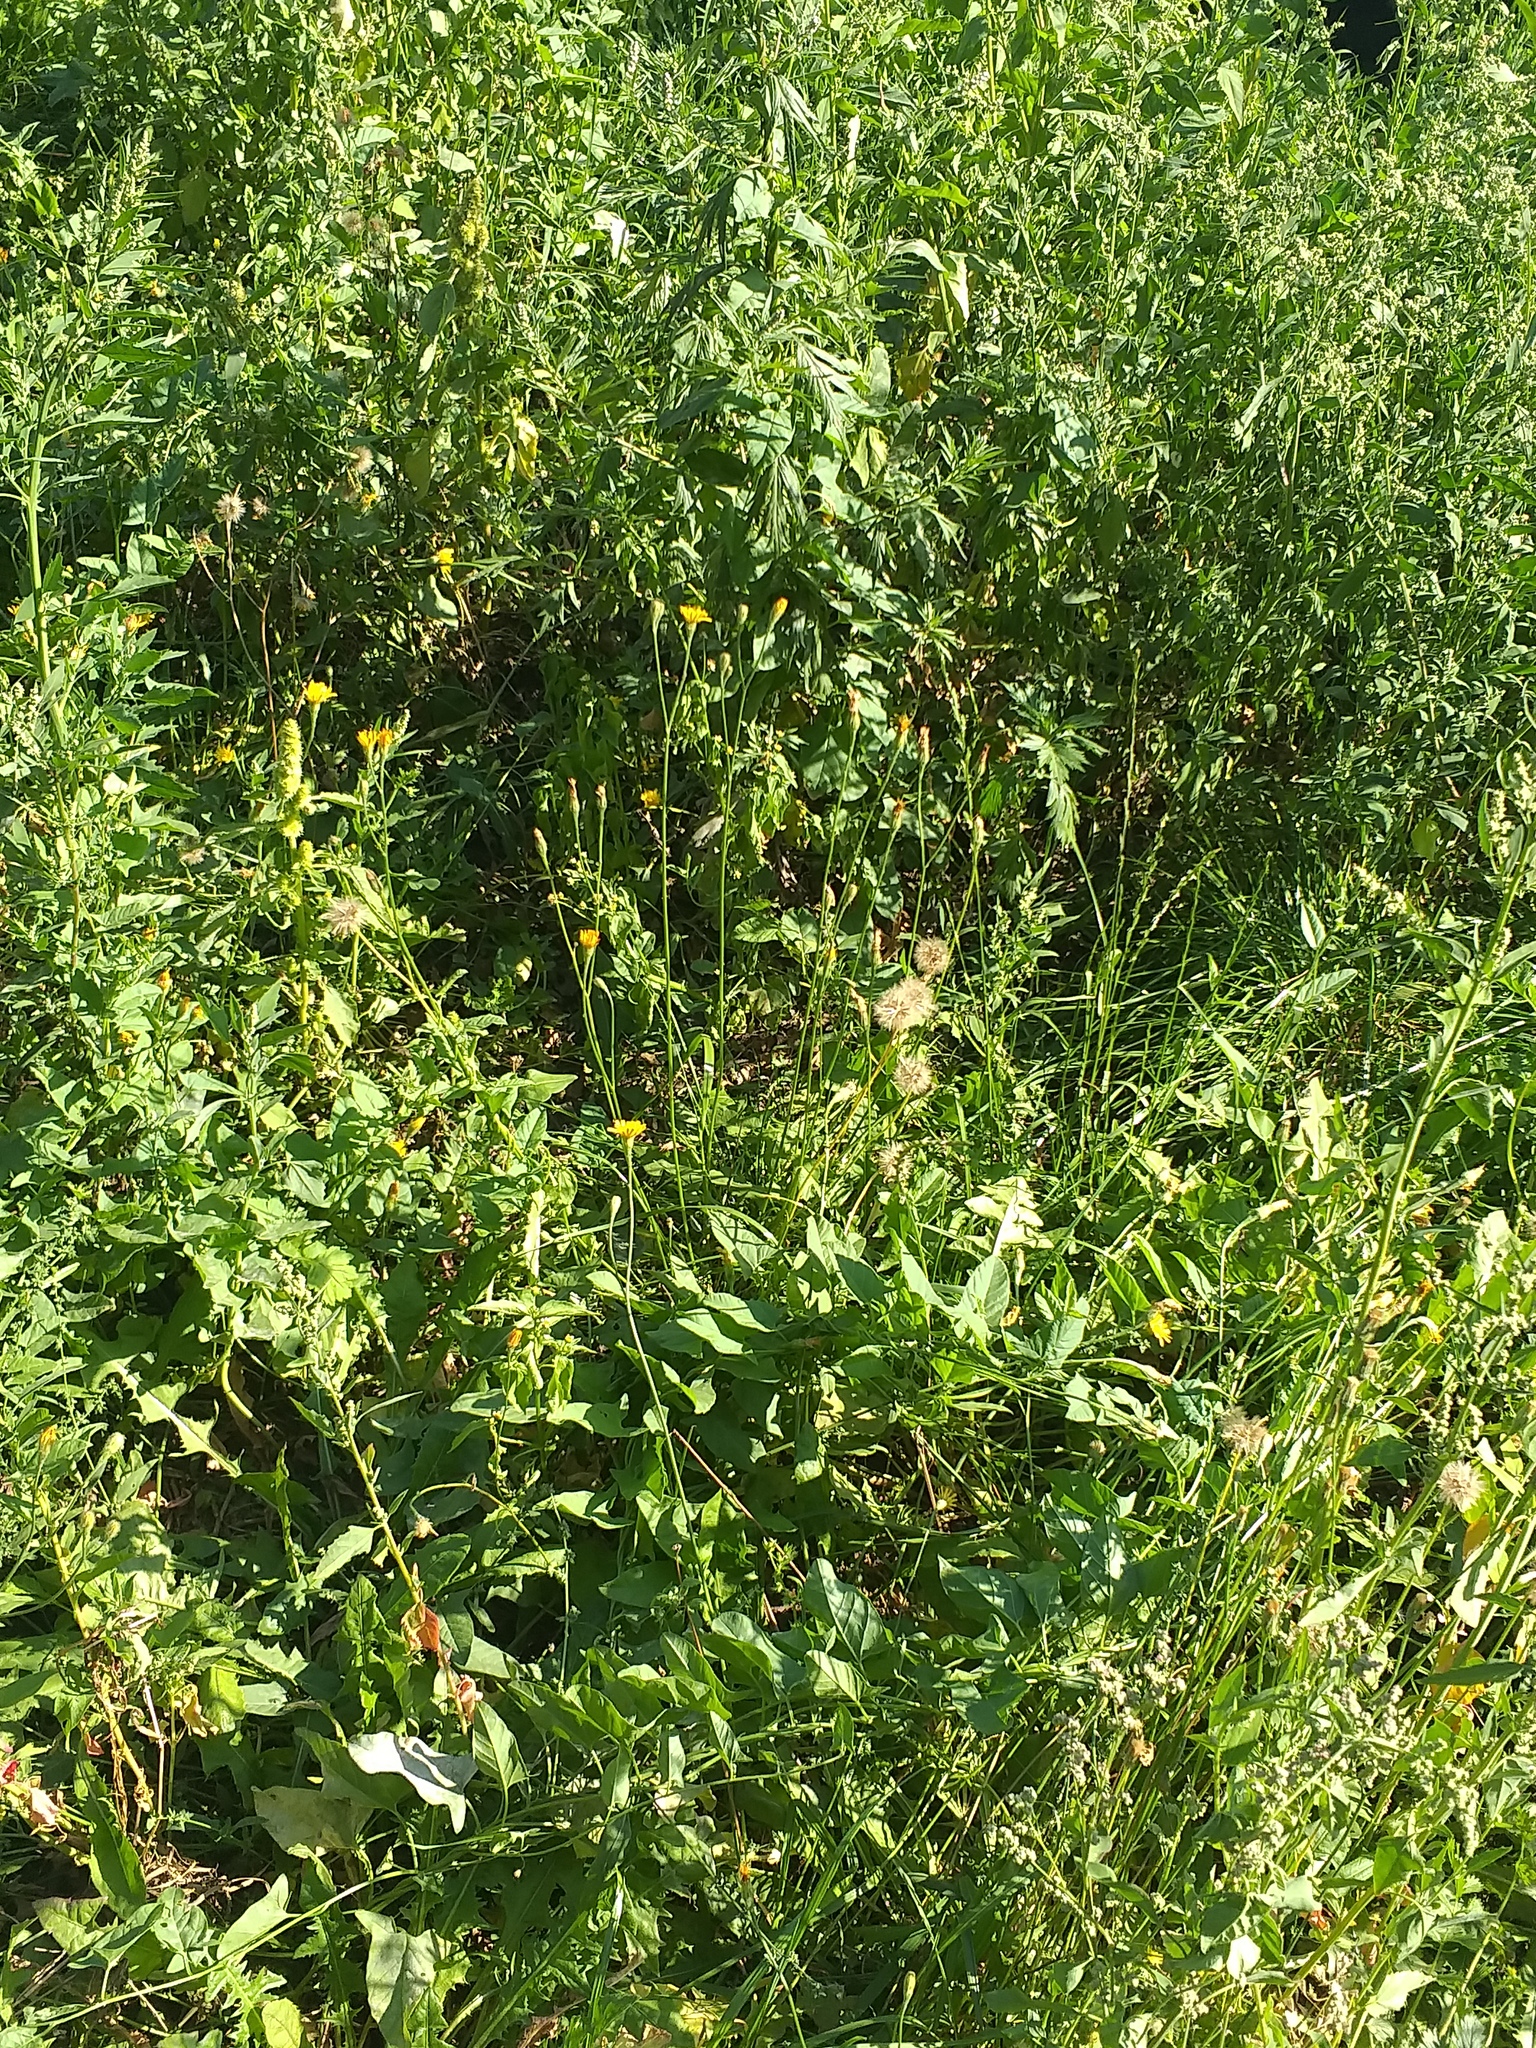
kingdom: Plantae
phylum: Tracheophyta
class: Magnoliopsida
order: Asterales
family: Asteraceae
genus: Scorzoneroides
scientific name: Scorzoneroides autumnalis
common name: Autumn hawkbit
